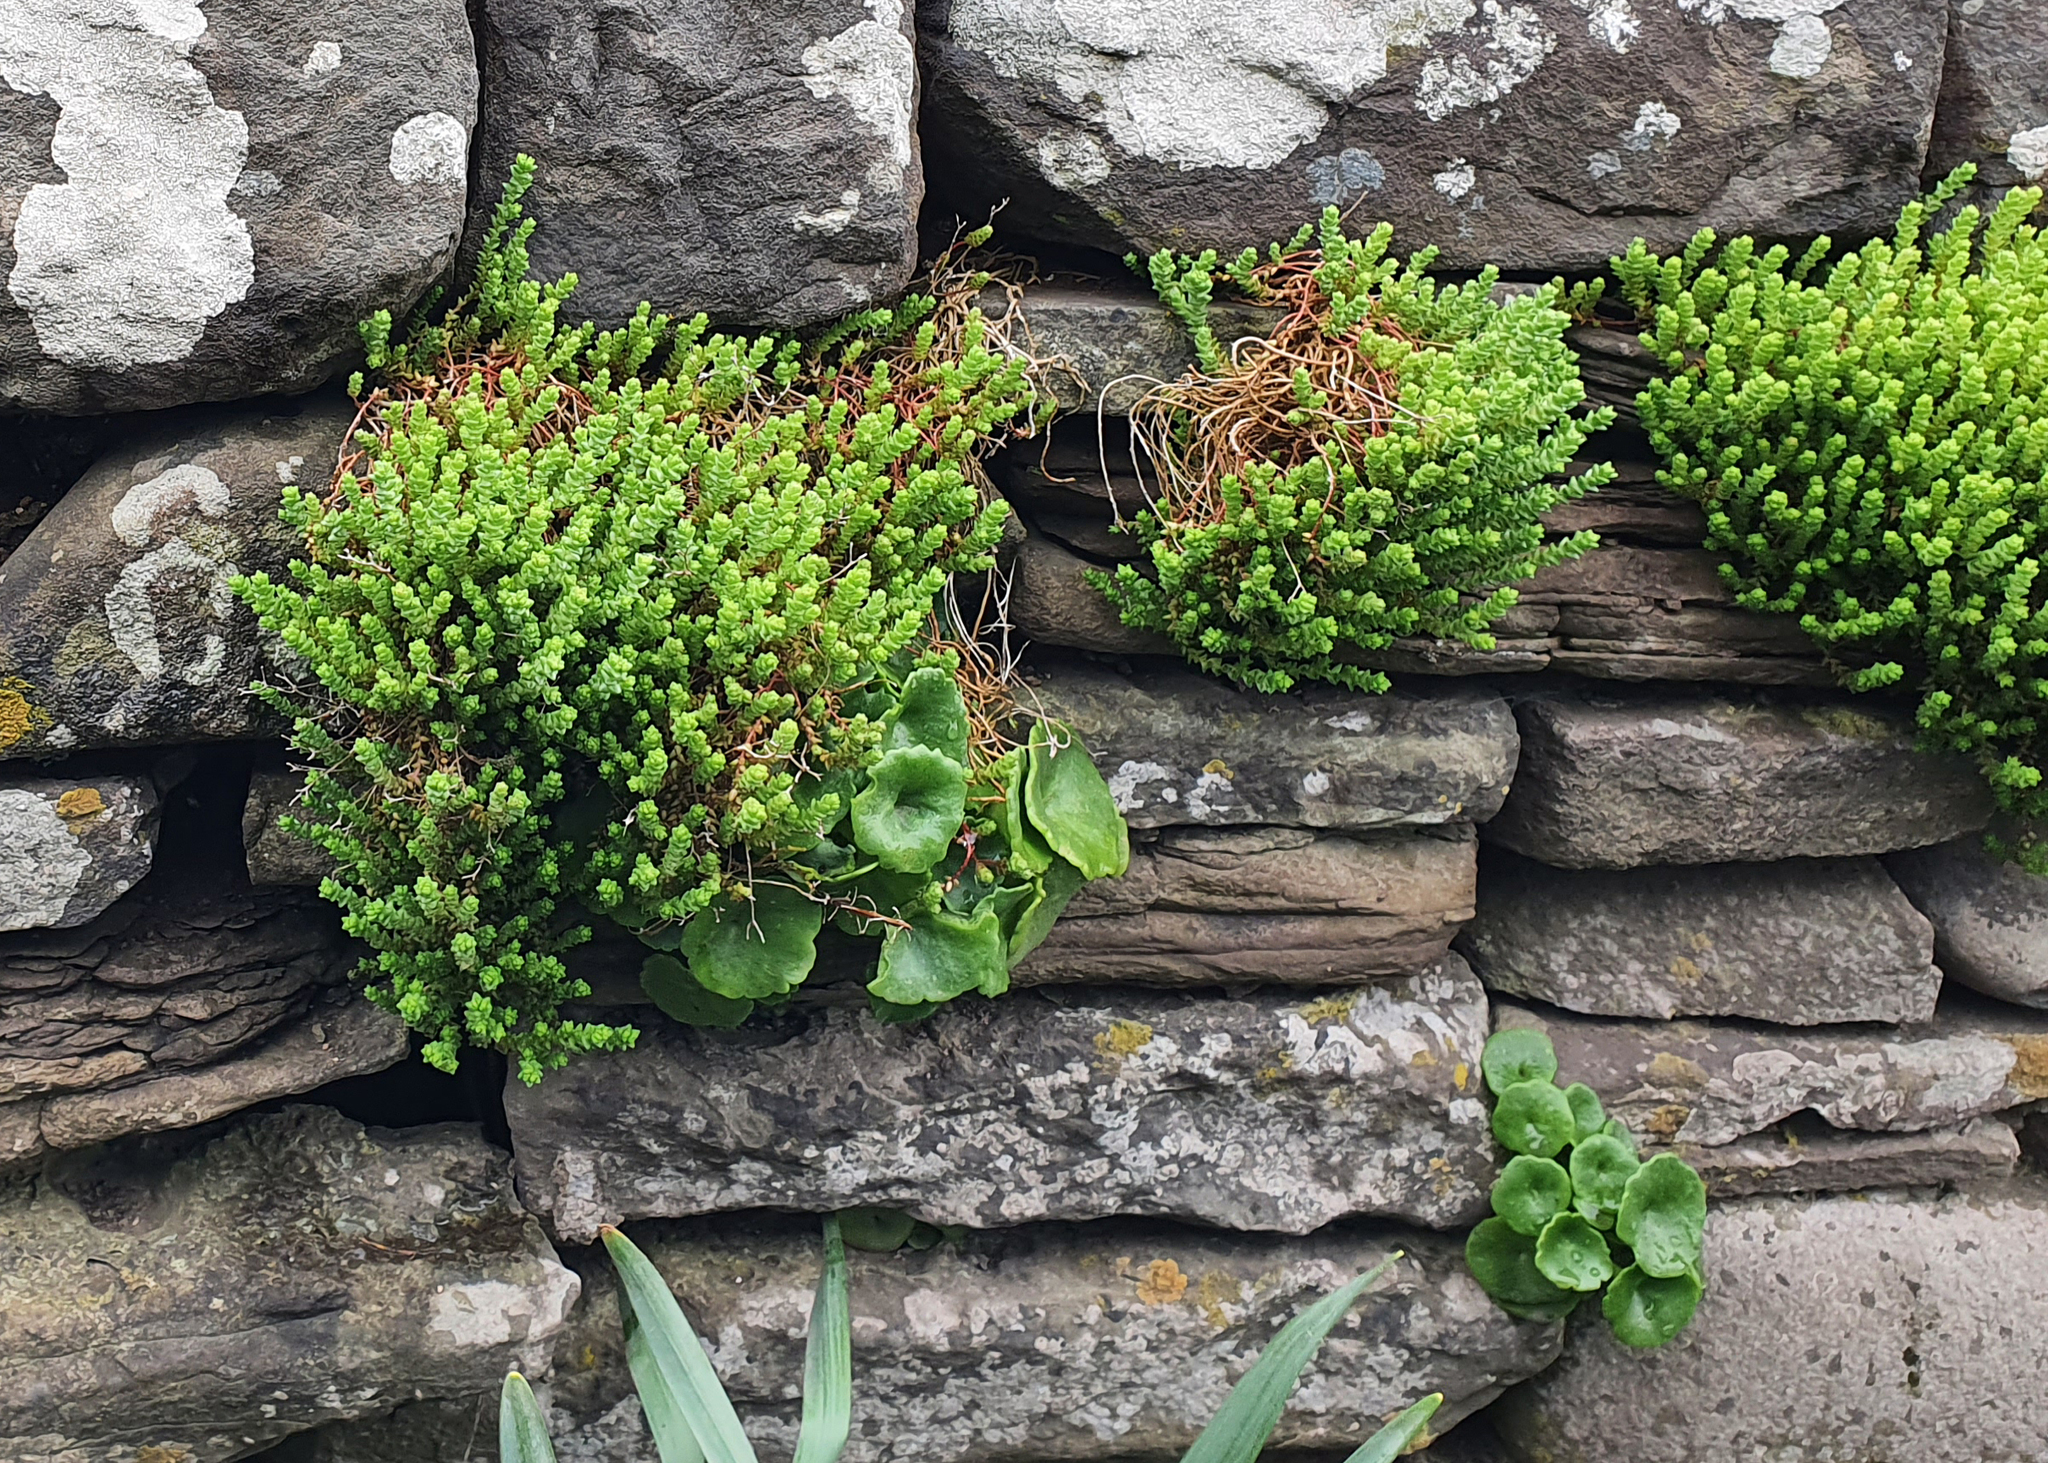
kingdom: Plantae
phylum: Tracheophyta
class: Magnoliopsida
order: Saxifragales
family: Crassulaceae
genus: Umbilicus
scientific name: Umbilicus rupestris
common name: Navelwort
